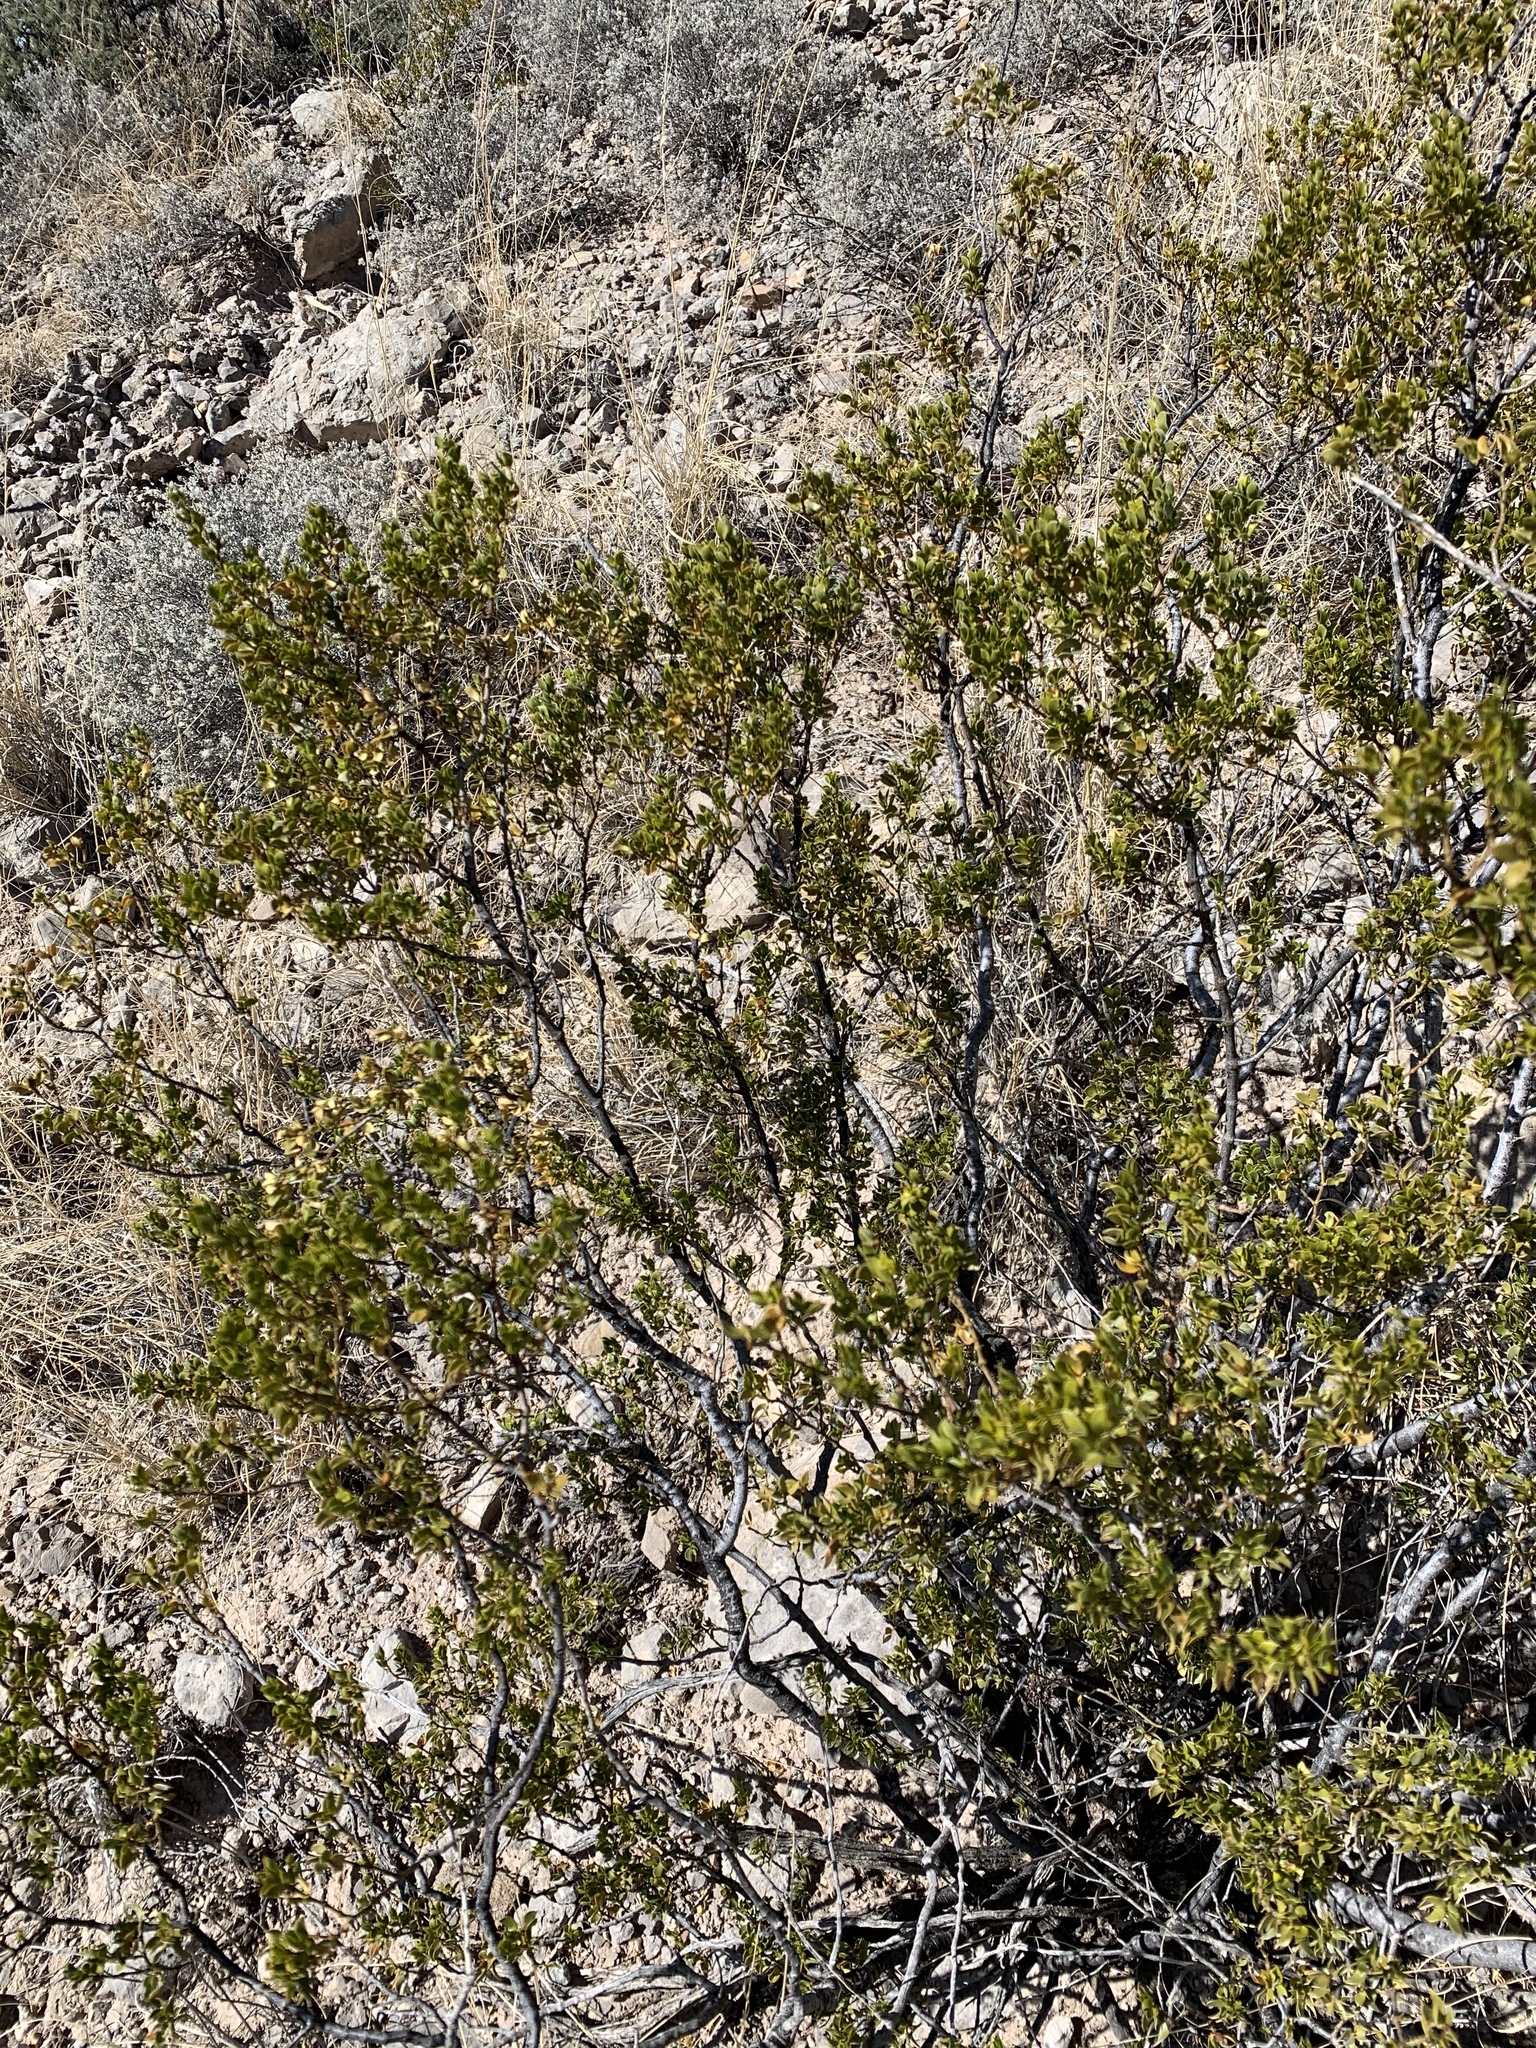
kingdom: Plantae
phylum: Tracheophyta
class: Magnoliopsida
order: Zygophyllales
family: Zygophyllaceae
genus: Larrea
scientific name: Larrea tridentata
